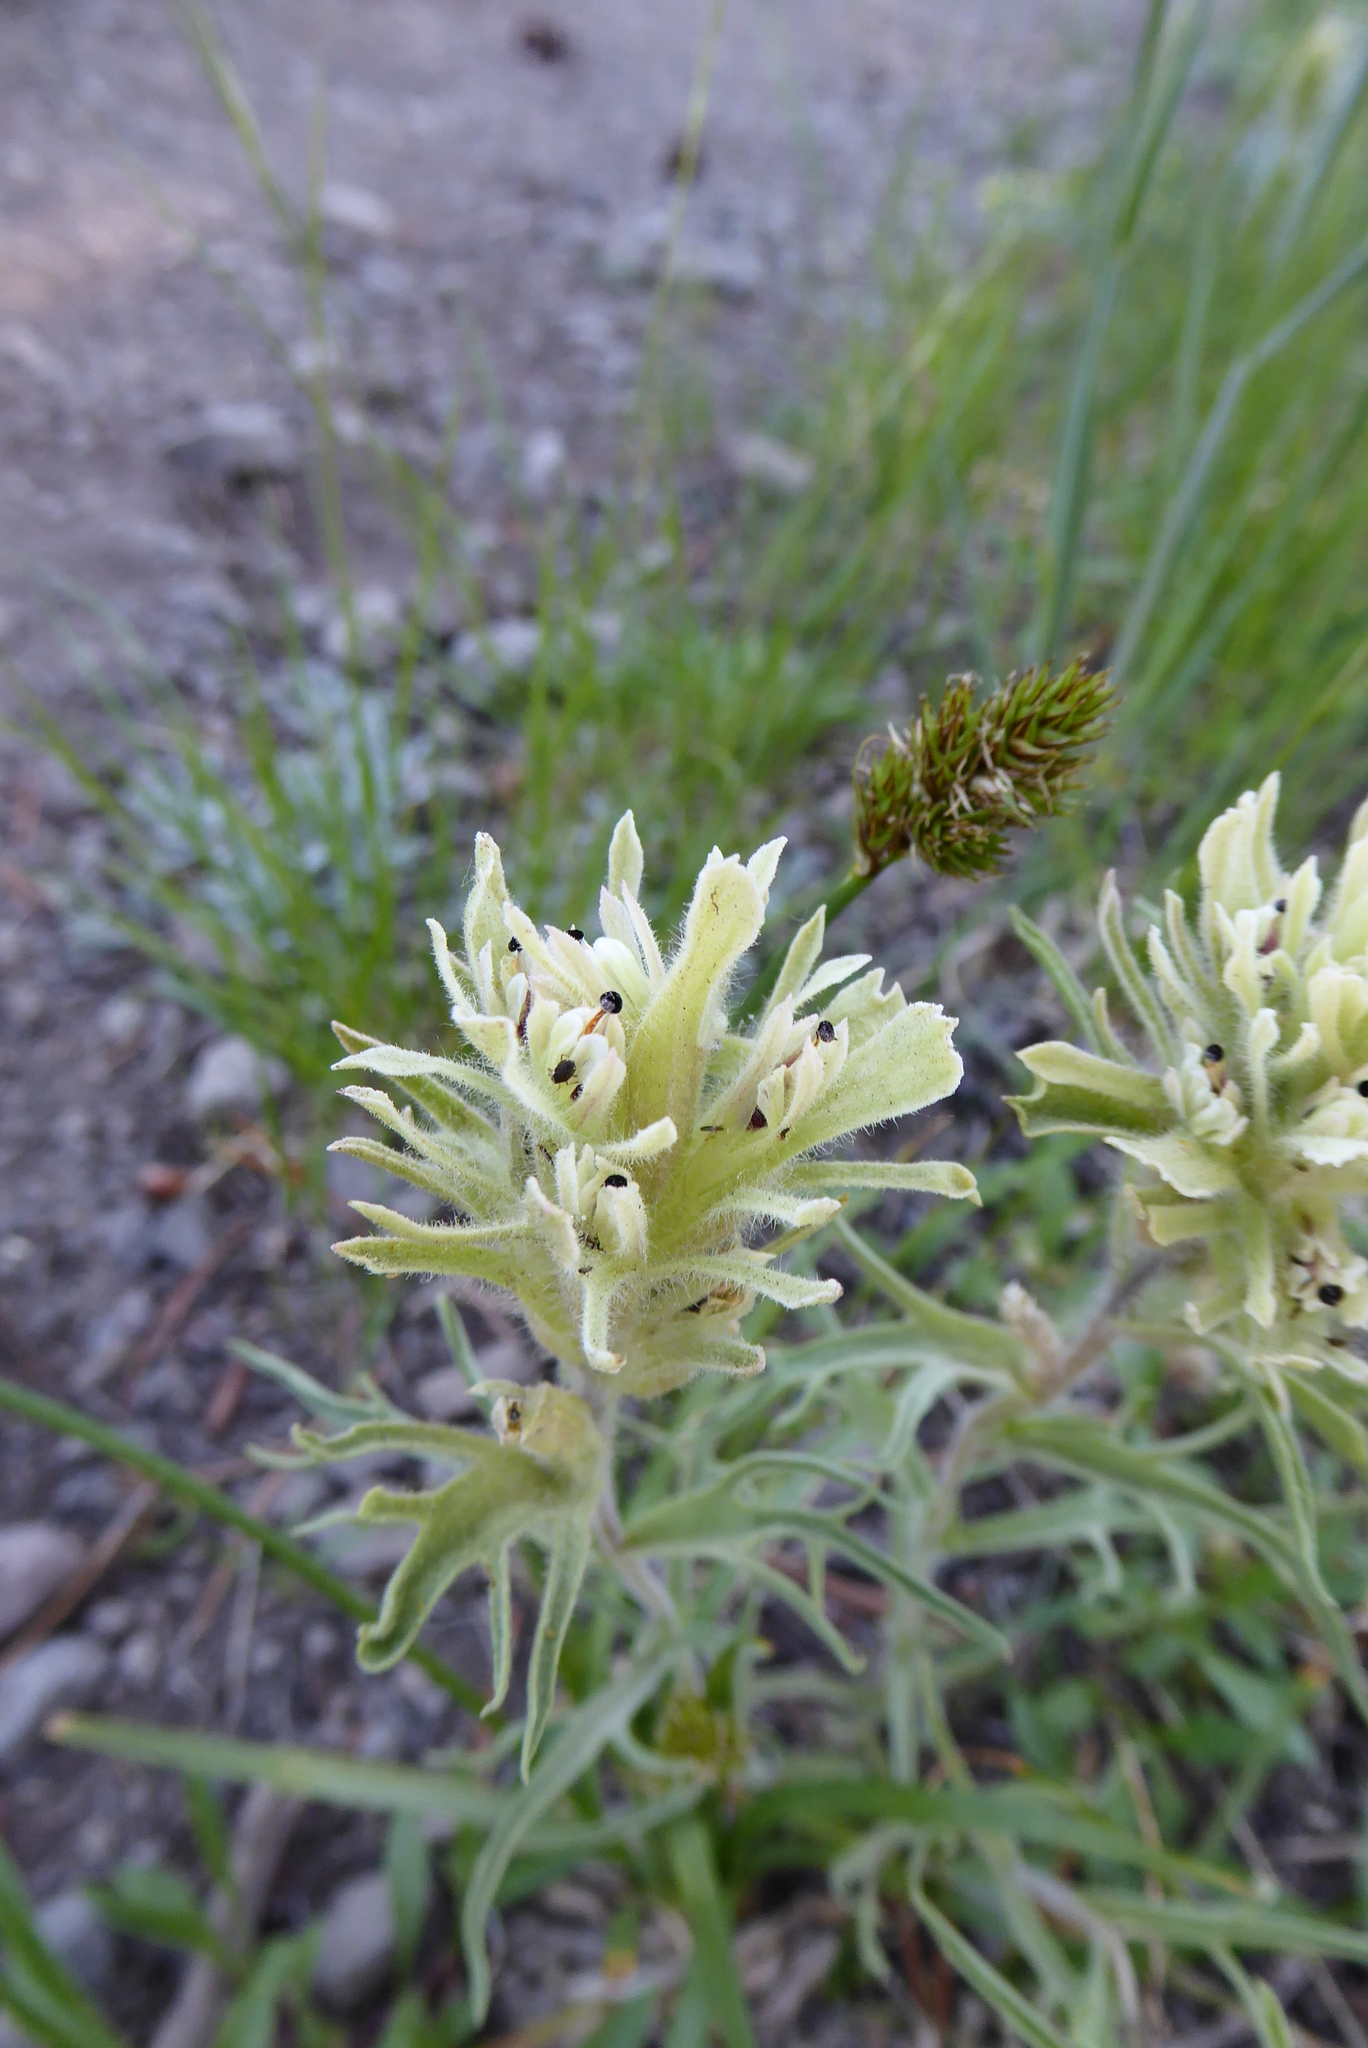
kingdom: Plantae
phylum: Tracheophyta
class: Magnoliopsida
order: Lamiales
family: Orobanchaceae
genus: Castilleja
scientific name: Castilleja nana
